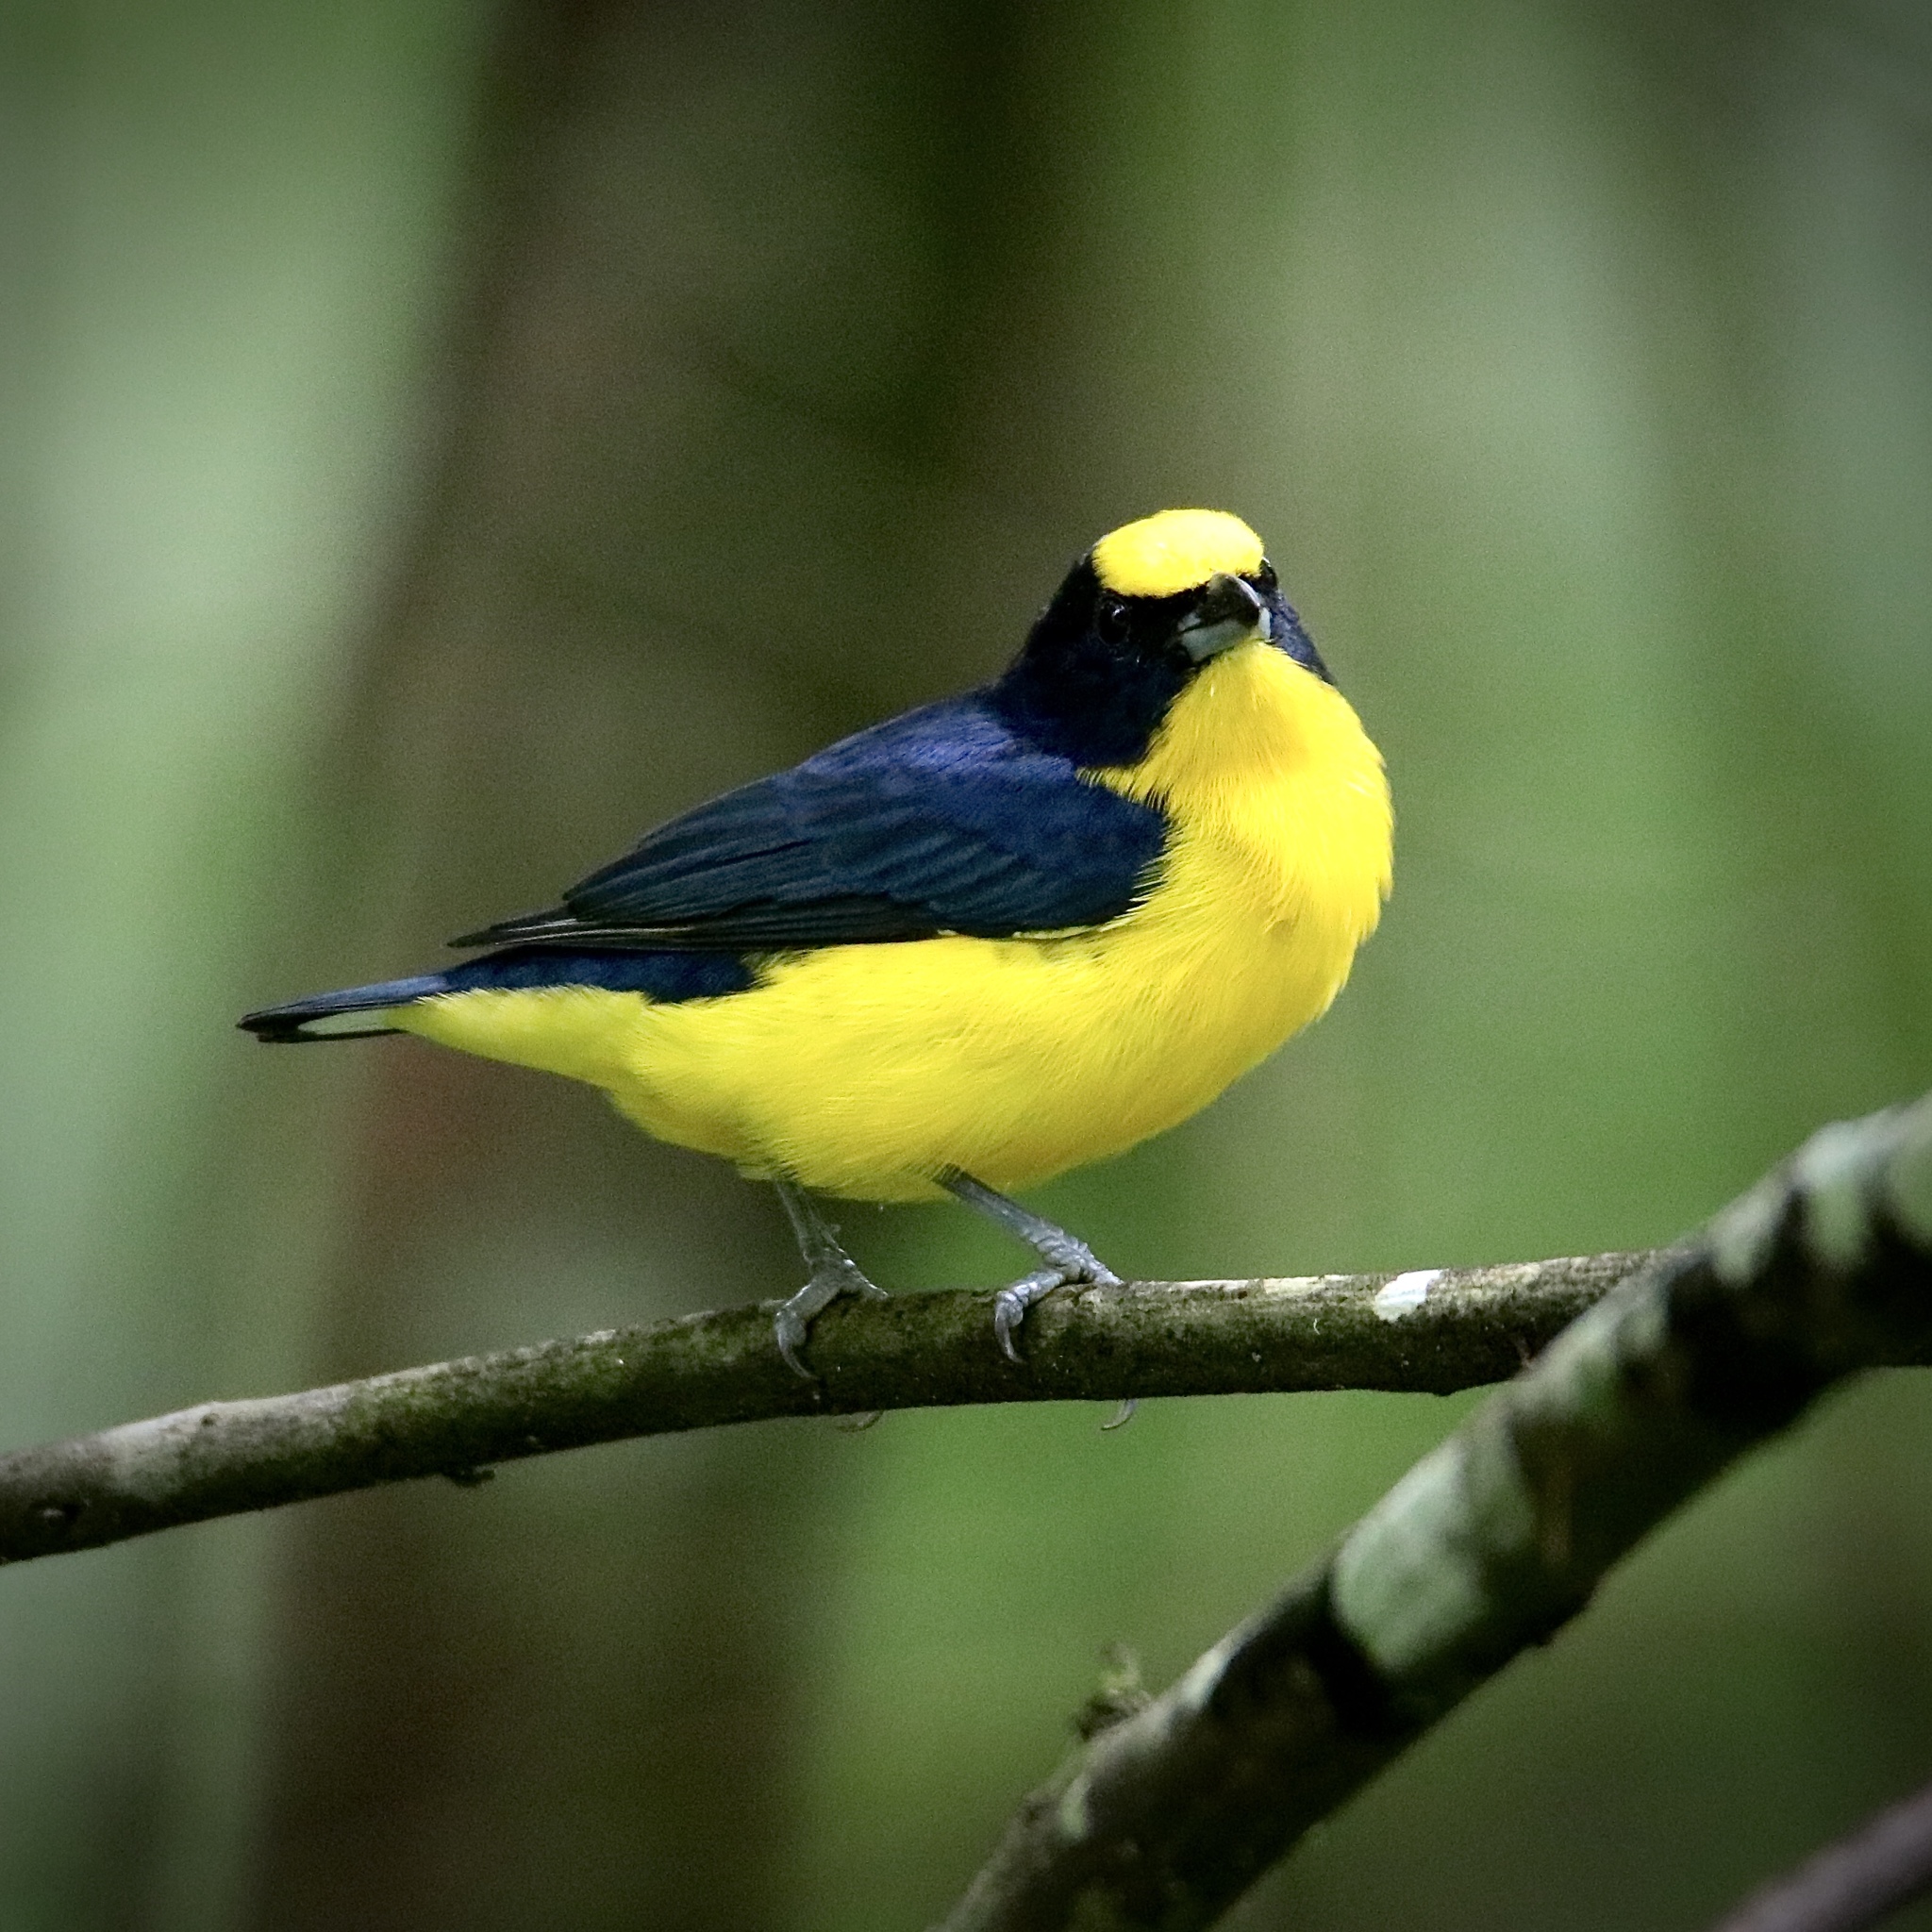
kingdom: Animalia
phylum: Chordata
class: Aves
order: Passeriformes
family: Fringillidae
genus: Euphonia
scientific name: Euphonia laniirostris
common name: Thick-billed euphonia
